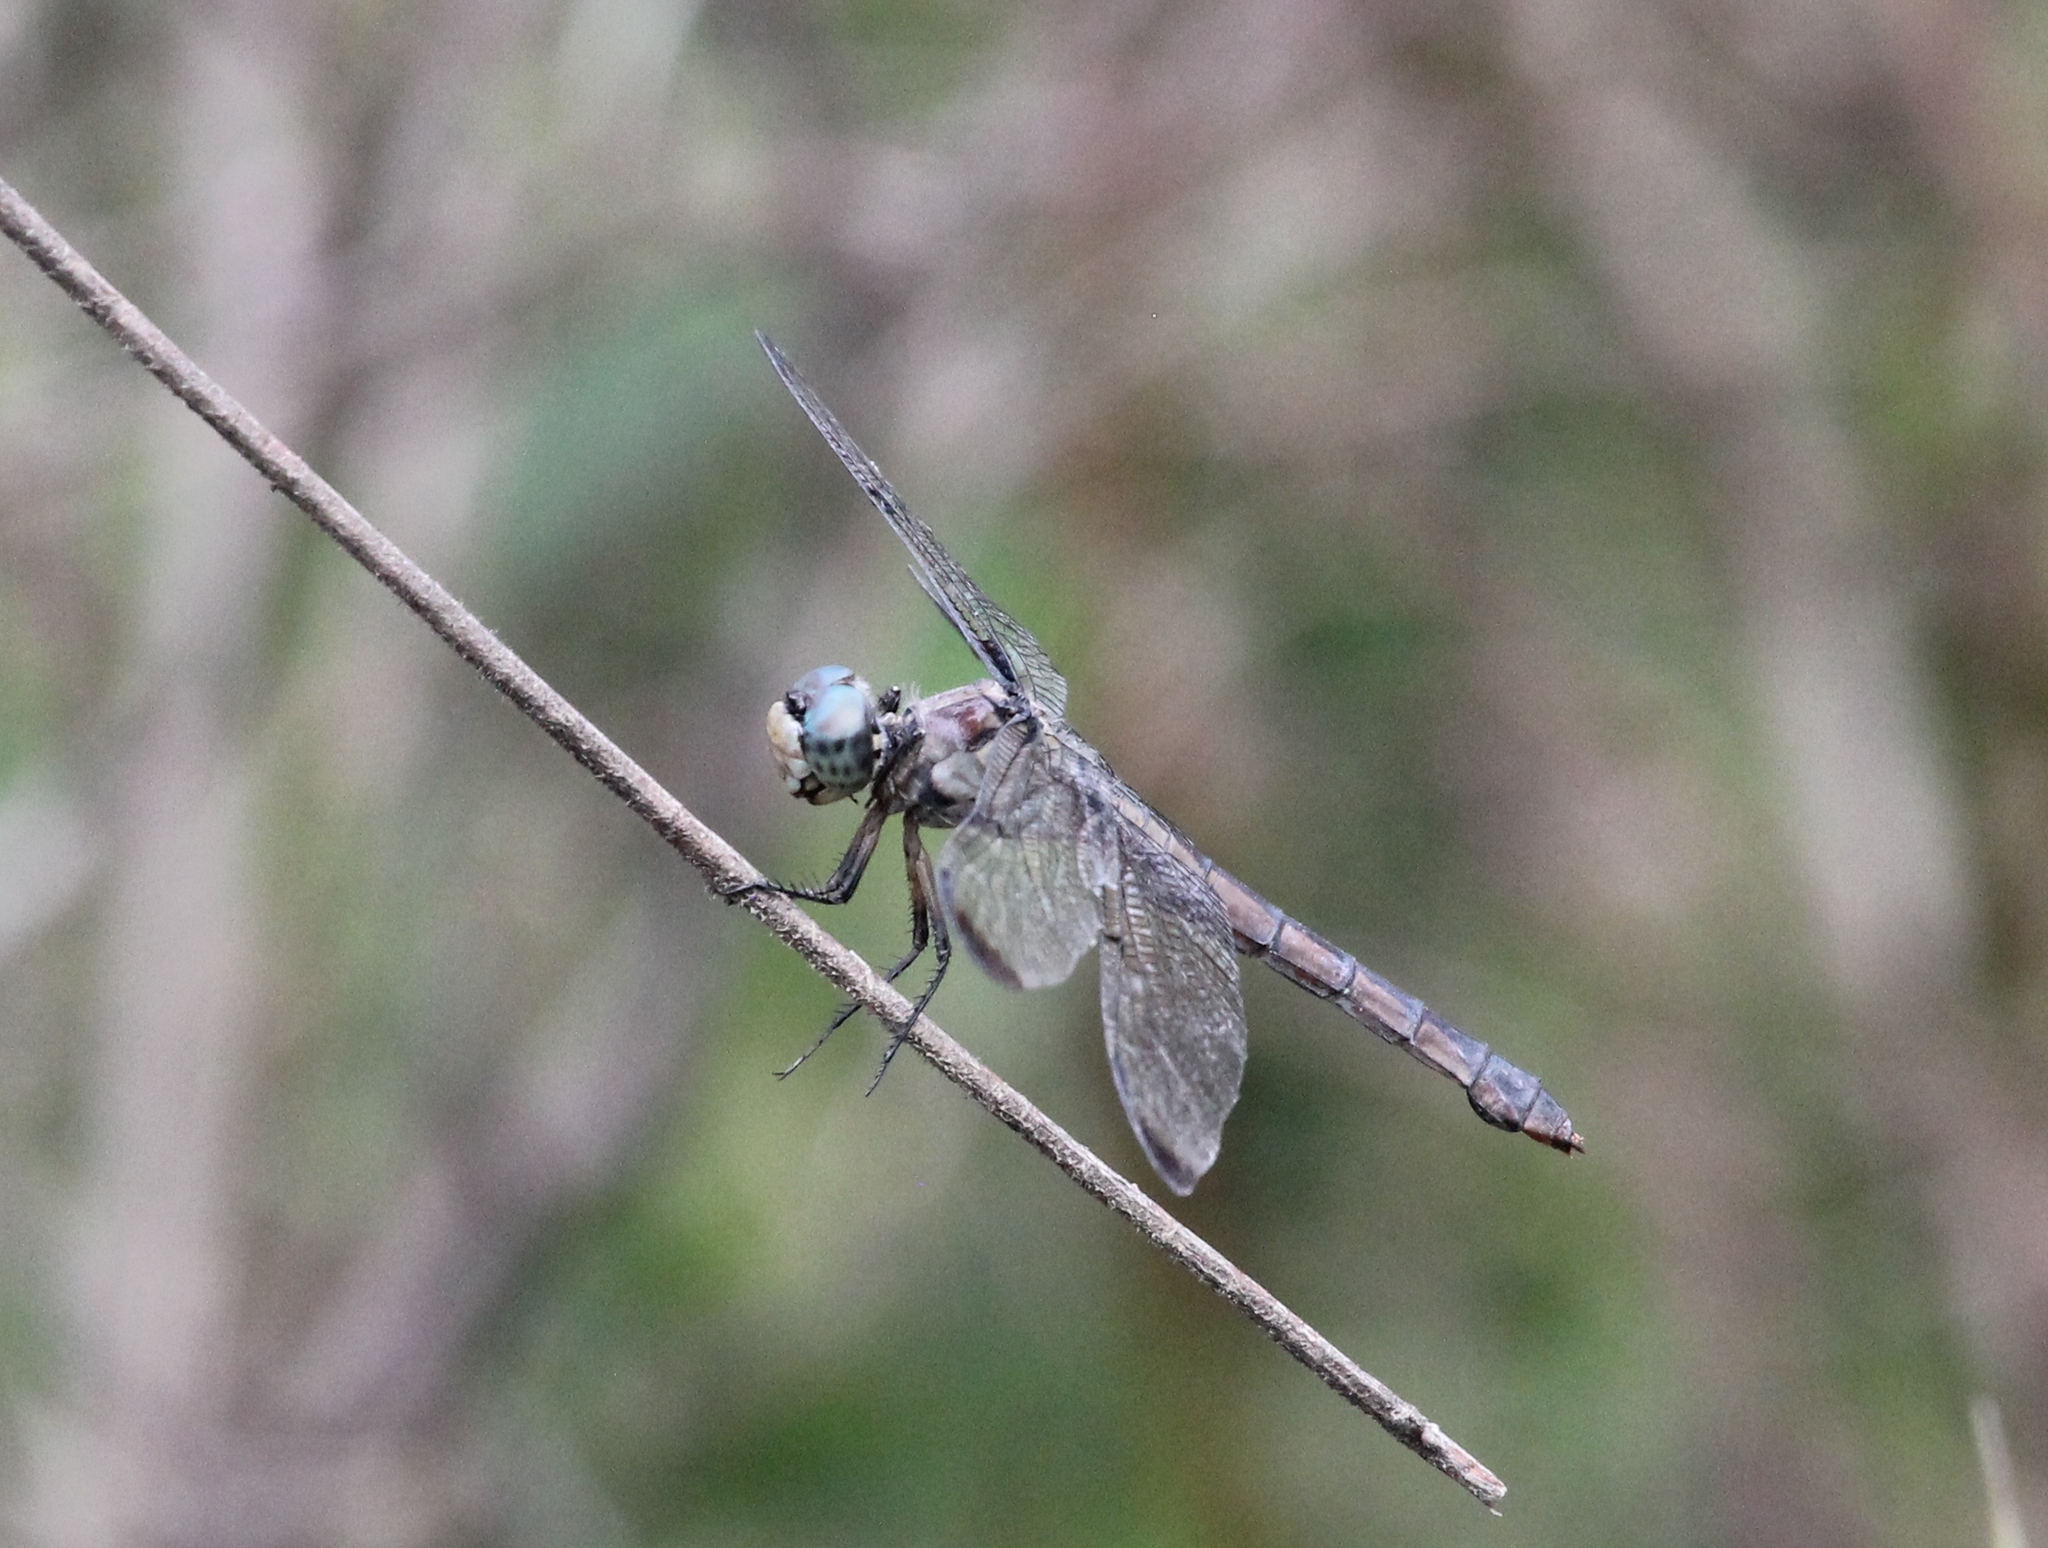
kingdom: Animalia
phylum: Arthropoda
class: Insecta
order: Odonata
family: Libellulidae
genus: Libellula
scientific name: Libellula vibrans
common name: Great blue skimmer
